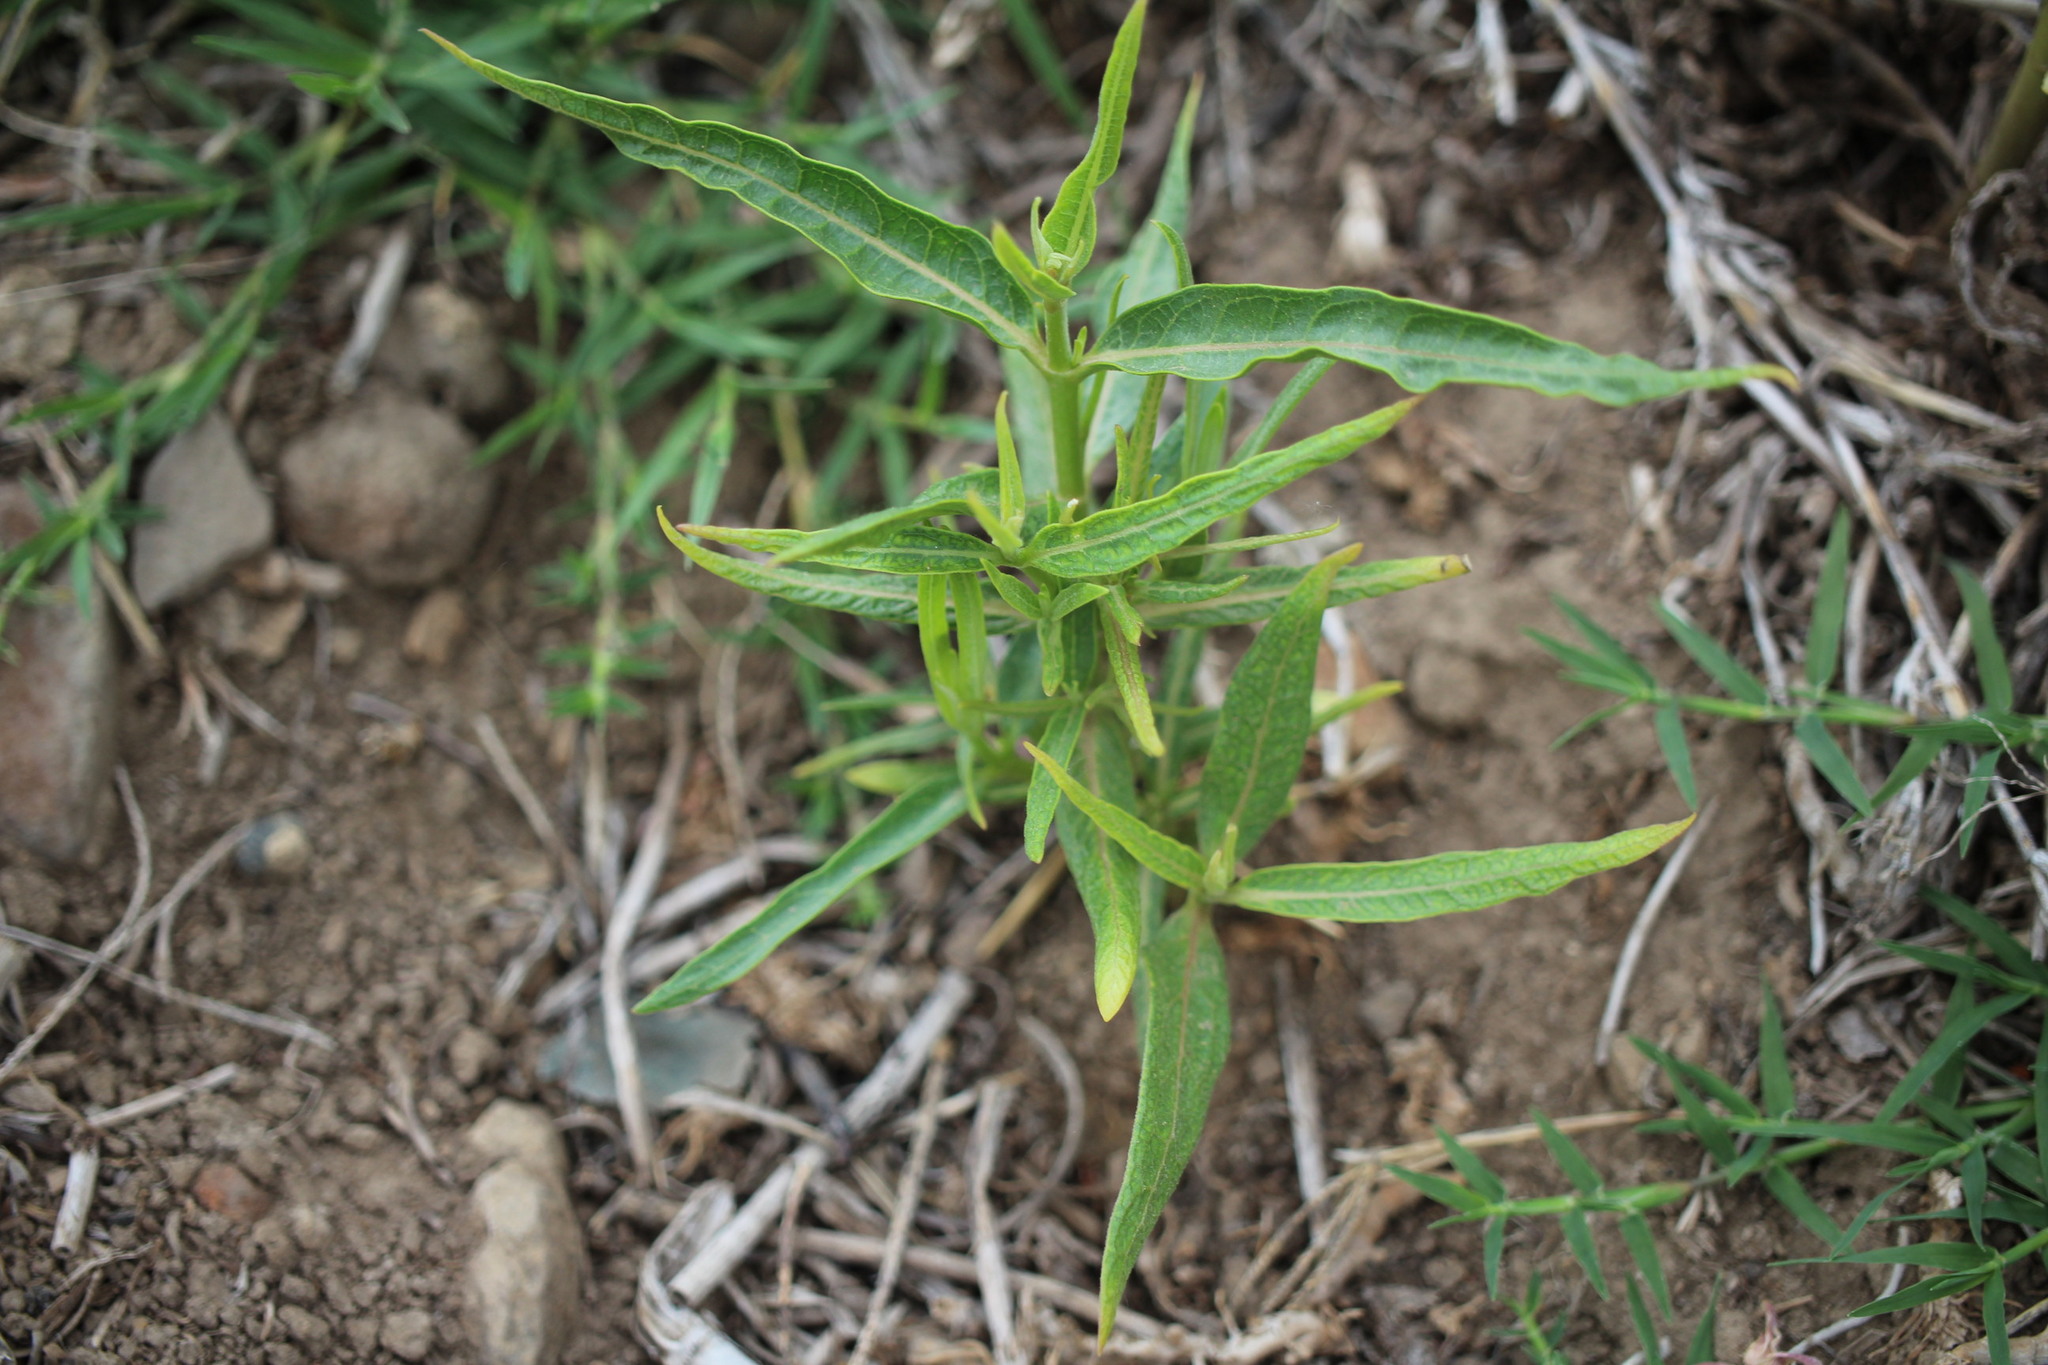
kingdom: Plantae
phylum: Tracheophyta
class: Magnoliopsida
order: Gentianales
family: Apocynaceae
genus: Asclepias
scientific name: Asclepias speciosa
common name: Showy milkweed
